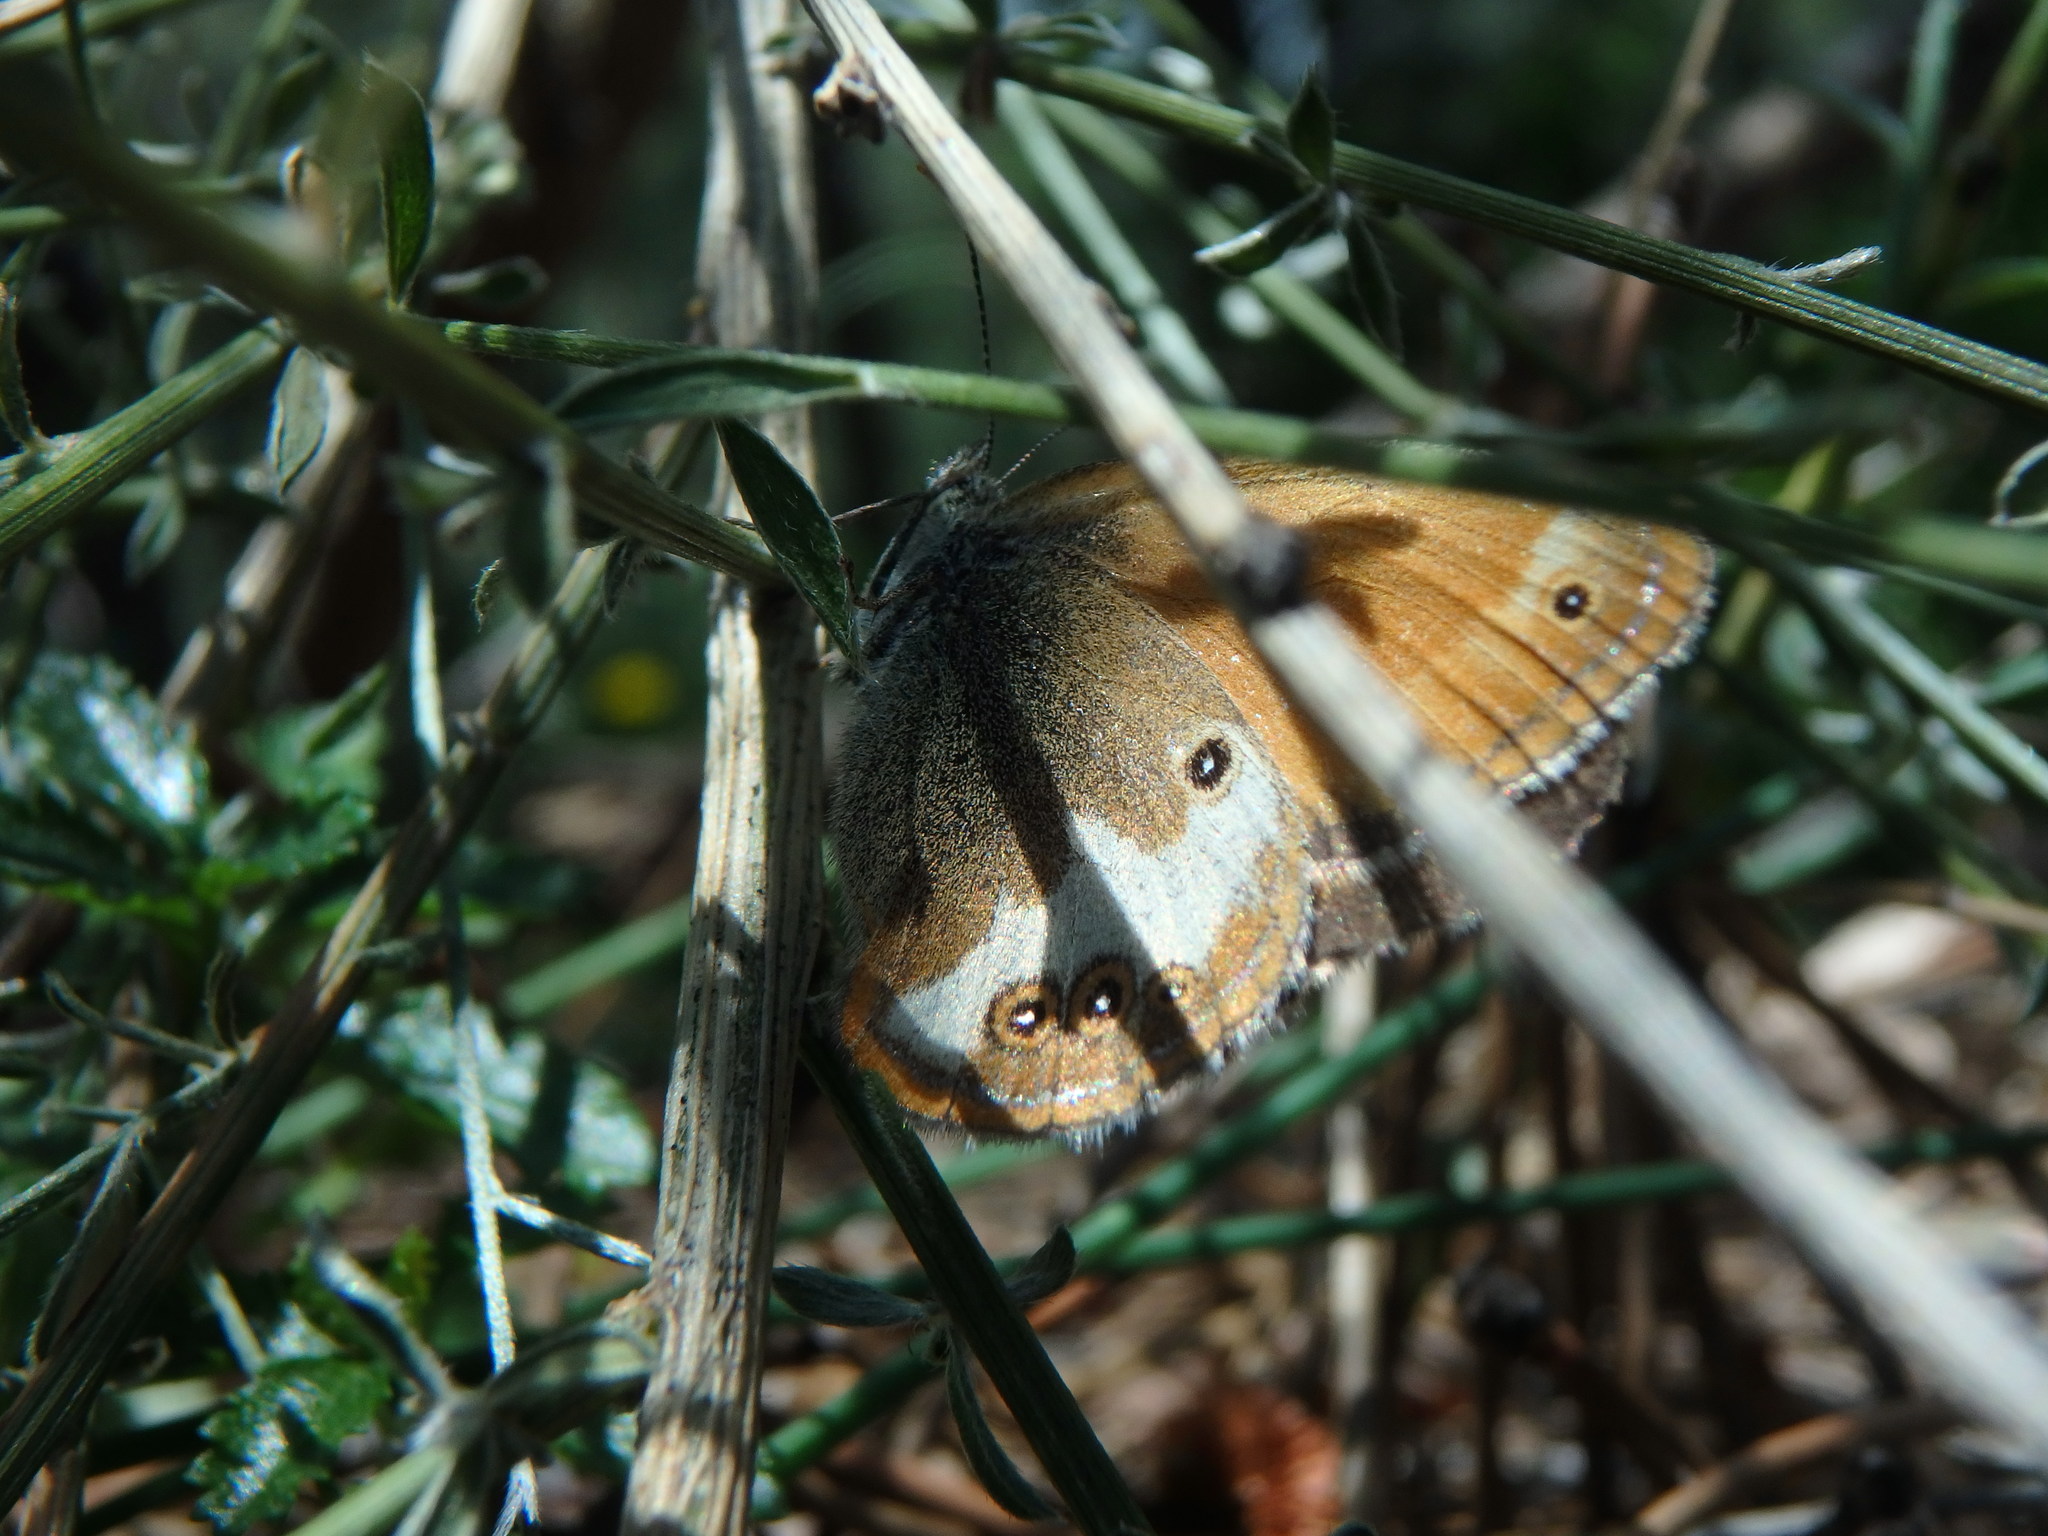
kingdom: Animalia
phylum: Arthropoda
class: Insecta
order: Lepidoptera
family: Nymphalidae
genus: Coenonympha
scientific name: Coenonympha arcania
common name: Pearly heath
